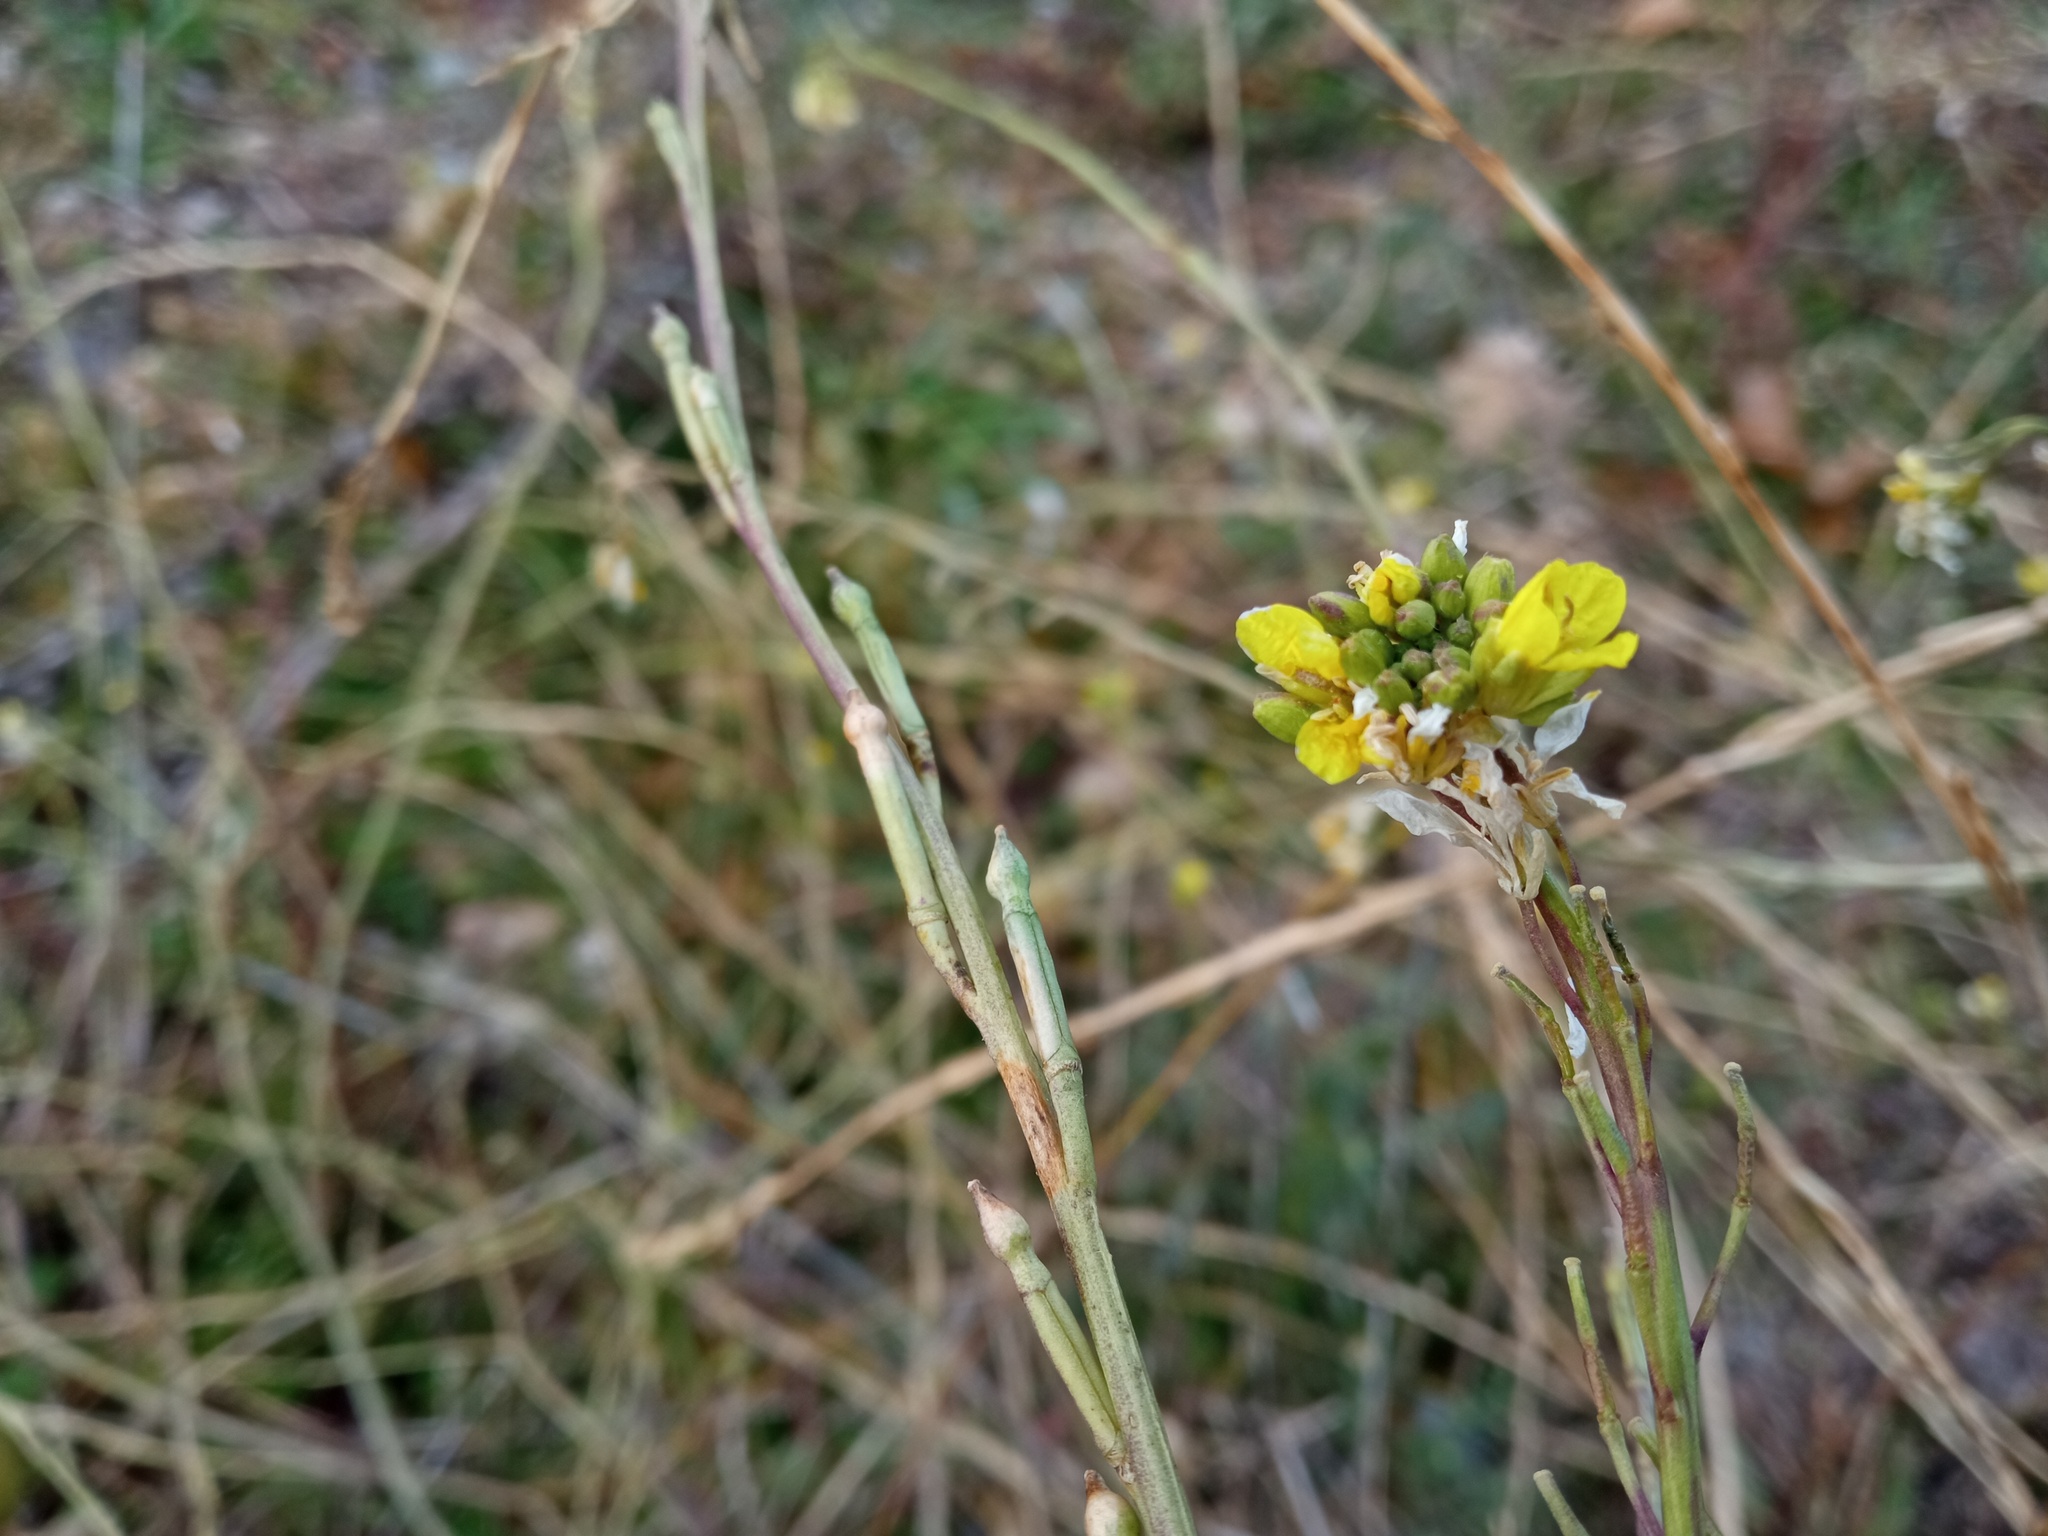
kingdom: Plantae
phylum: Tracheophyta
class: Magnoliopsida
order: Brassicales
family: Brassicaceae
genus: Hirschfeldia
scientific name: Hirschfeldia incana
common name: Hoary mustard
